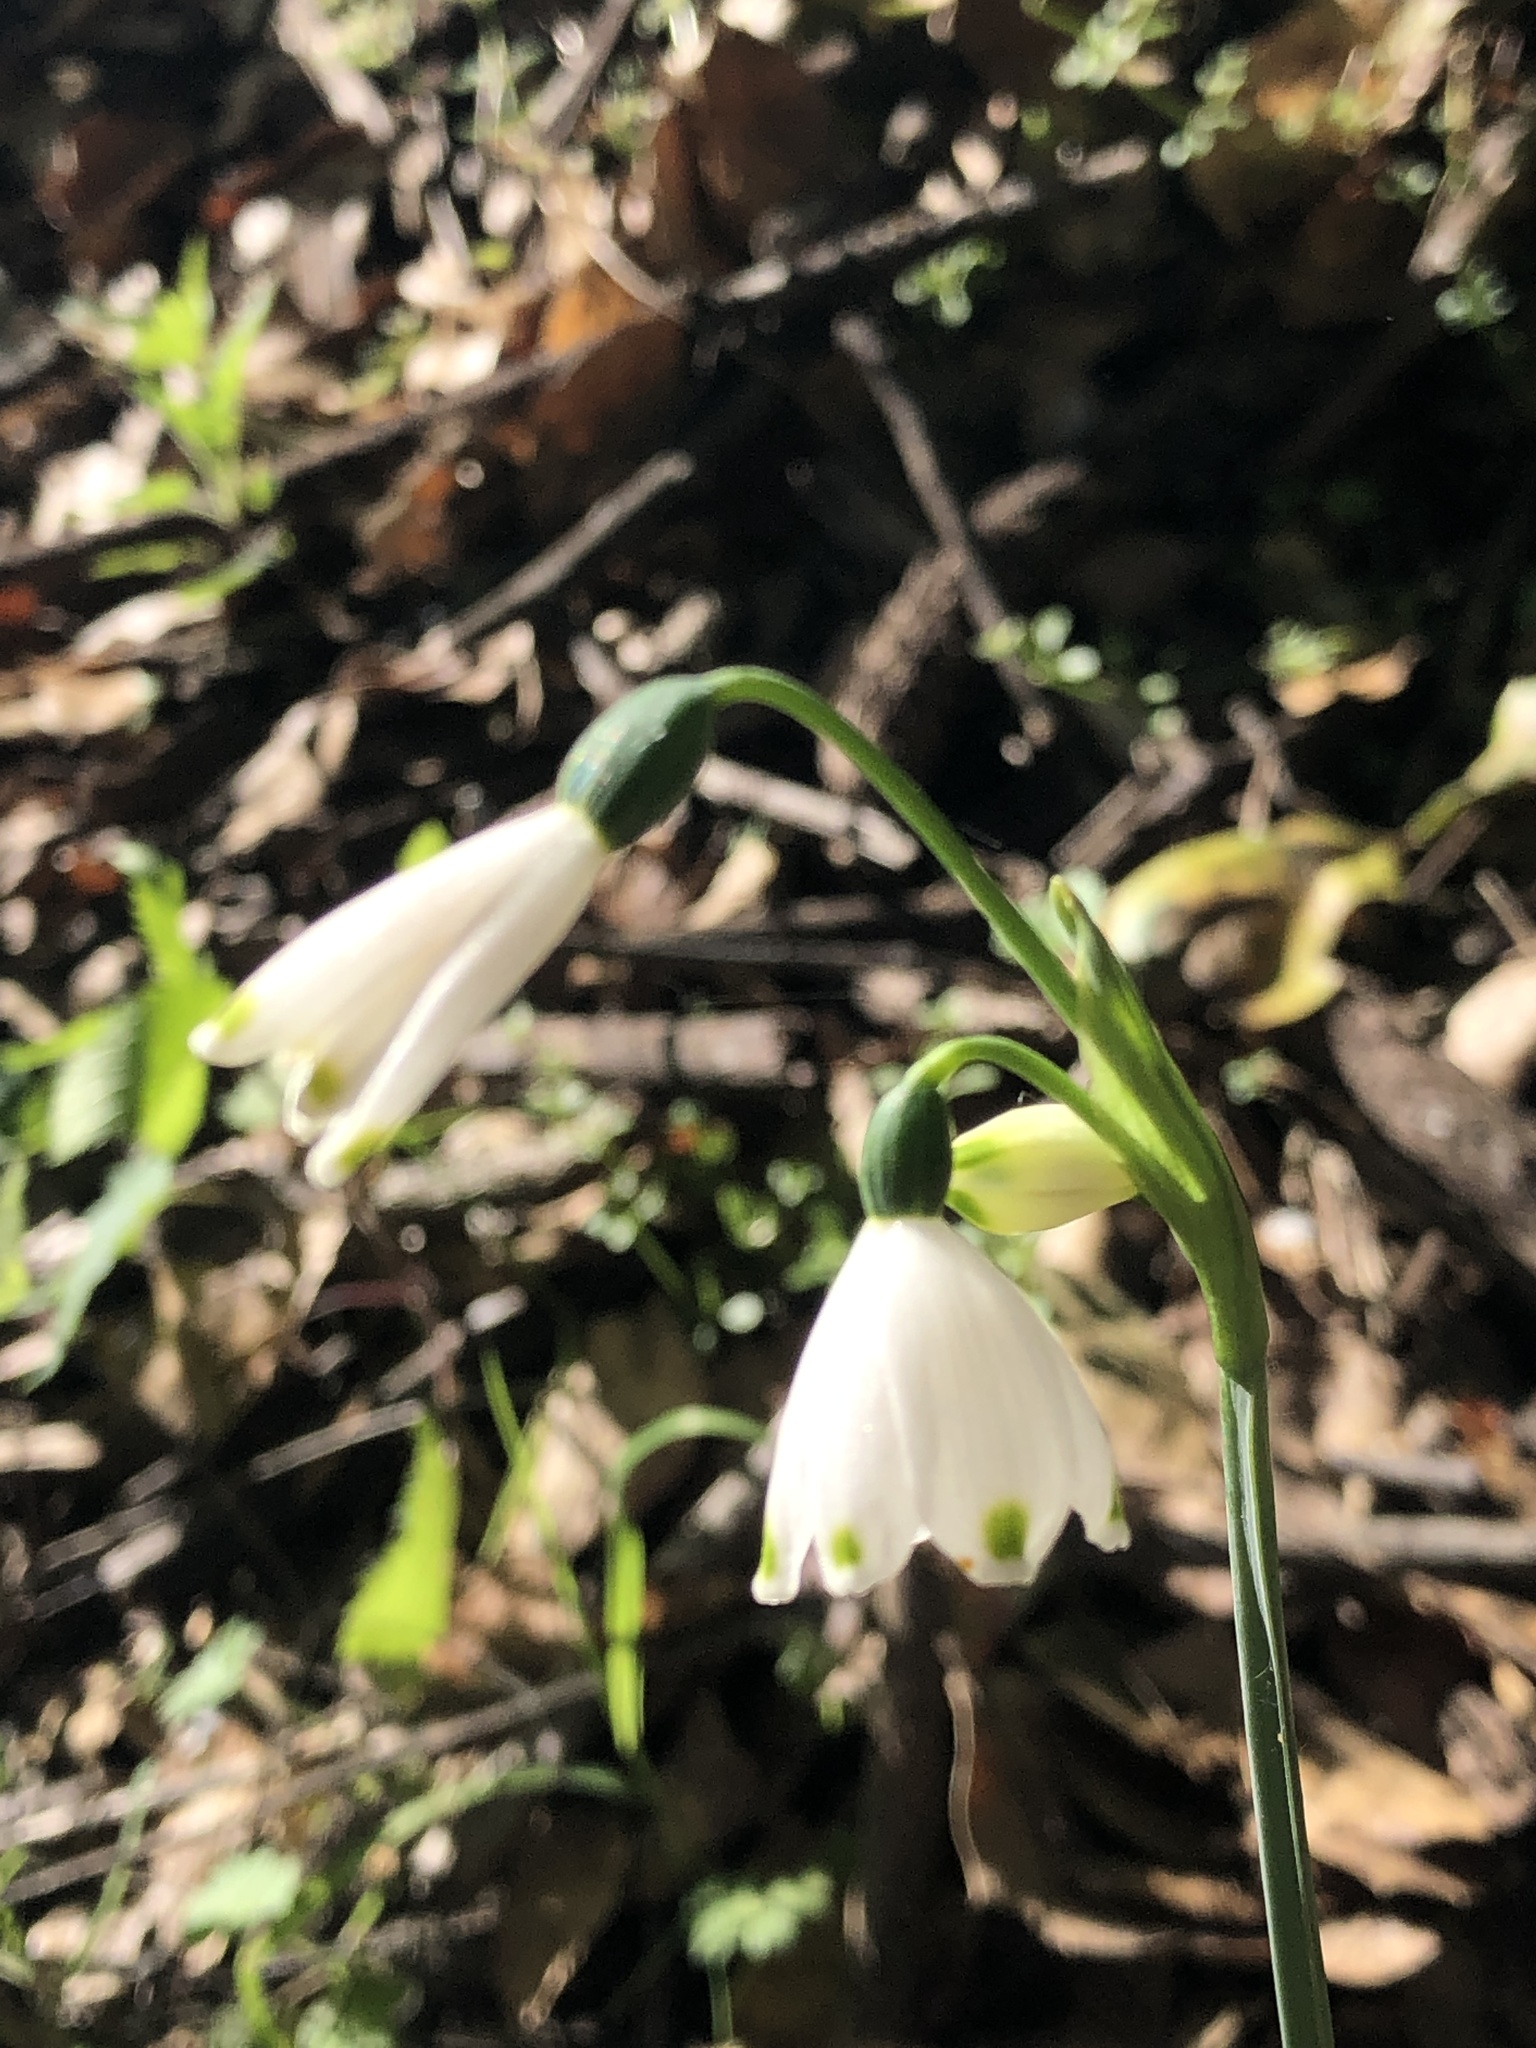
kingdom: Plantae
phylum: Tracheophyta
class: Liliopsida
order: Asparagales
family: Amaryllidaceae
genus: Leucojum
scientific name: Leucojum aestivum
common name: Summer snowflake
